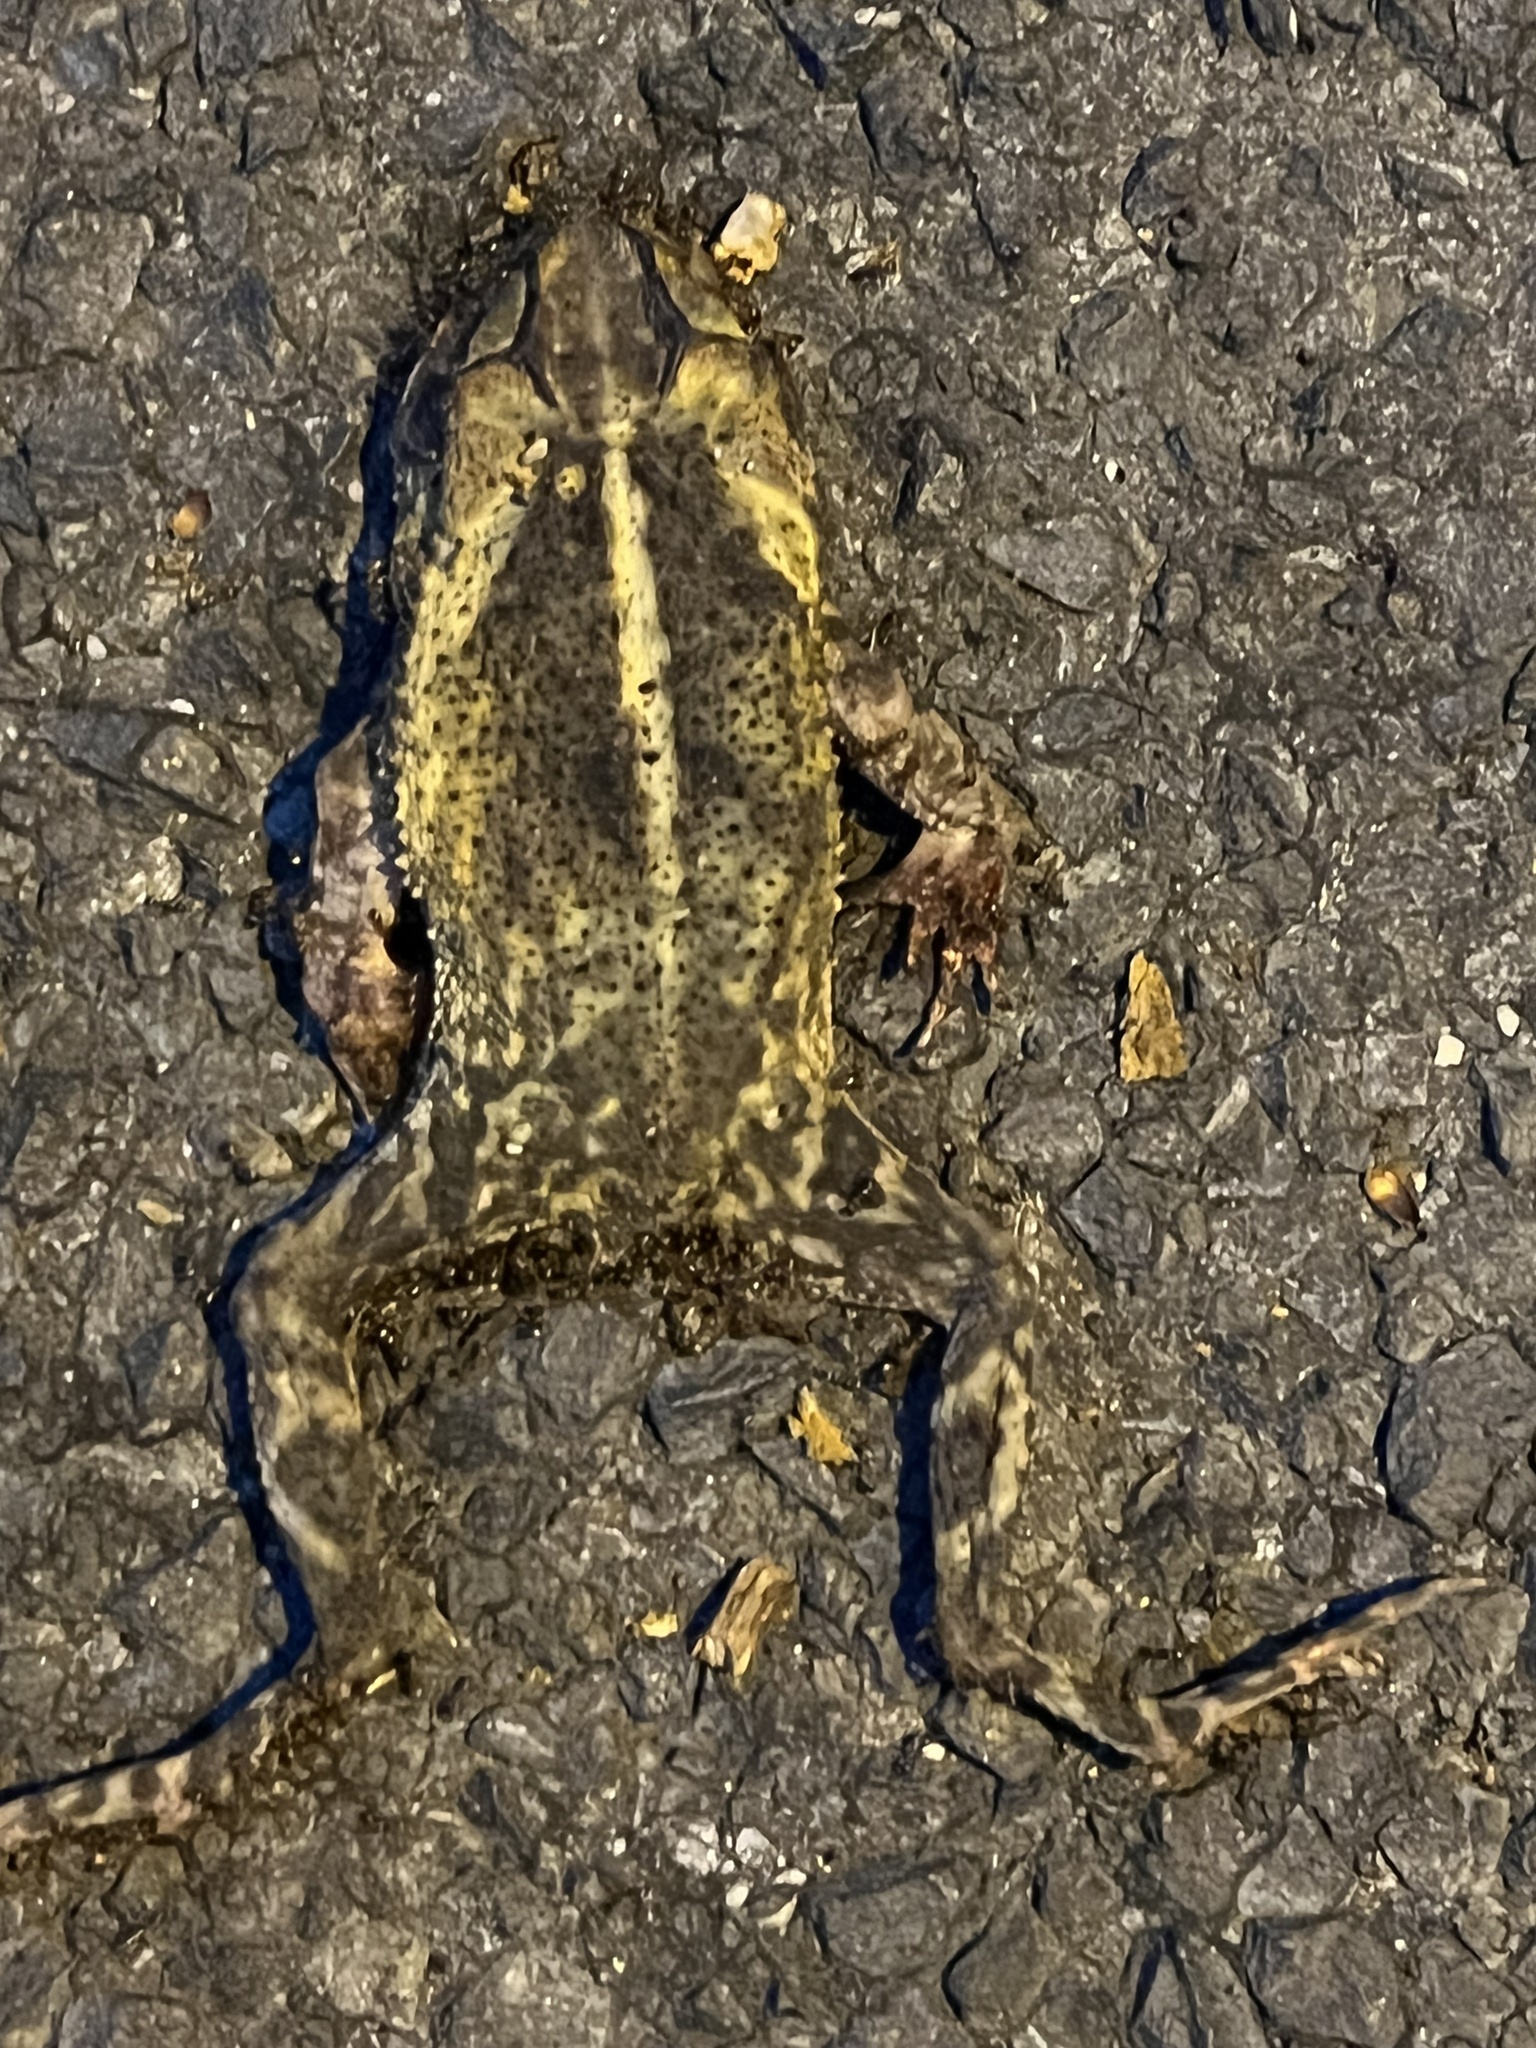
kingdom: Animalia
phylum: Chordata
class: Amphibia
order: Anura
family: Bufonidae
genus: Incilius
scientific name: Incilius nebulifer
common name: Gulf coast toad
